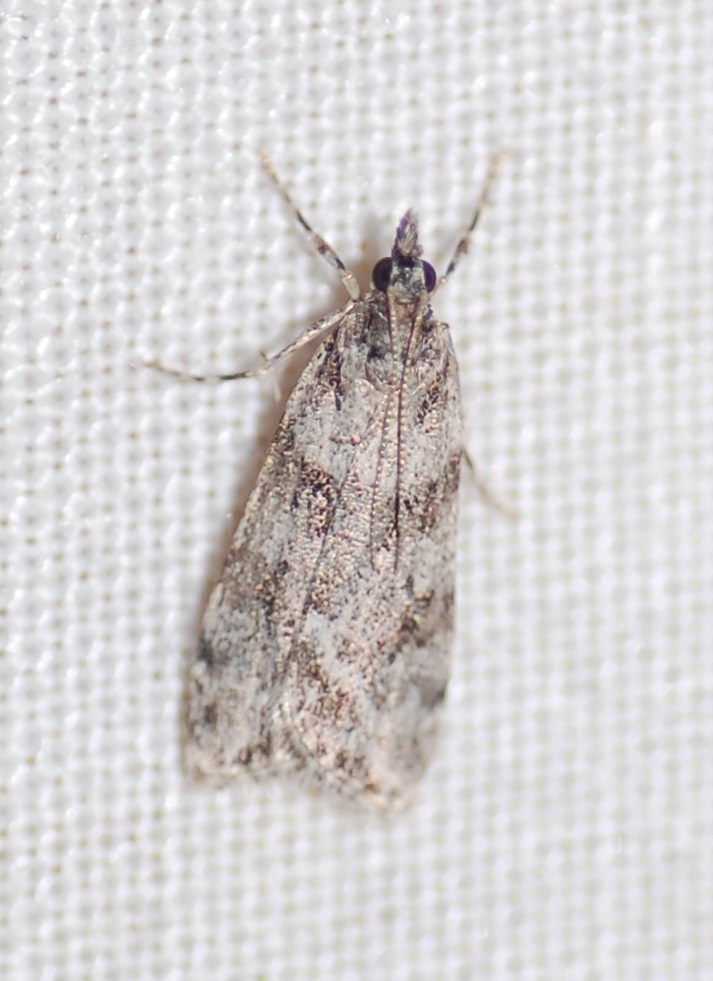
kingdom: Animalia
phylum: Arthropoda
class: Insecta
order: Lepidoptera
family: Crambidae
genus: Scoparia
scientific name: Scoparia biplagialis
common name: Double-striped scoparia moth
